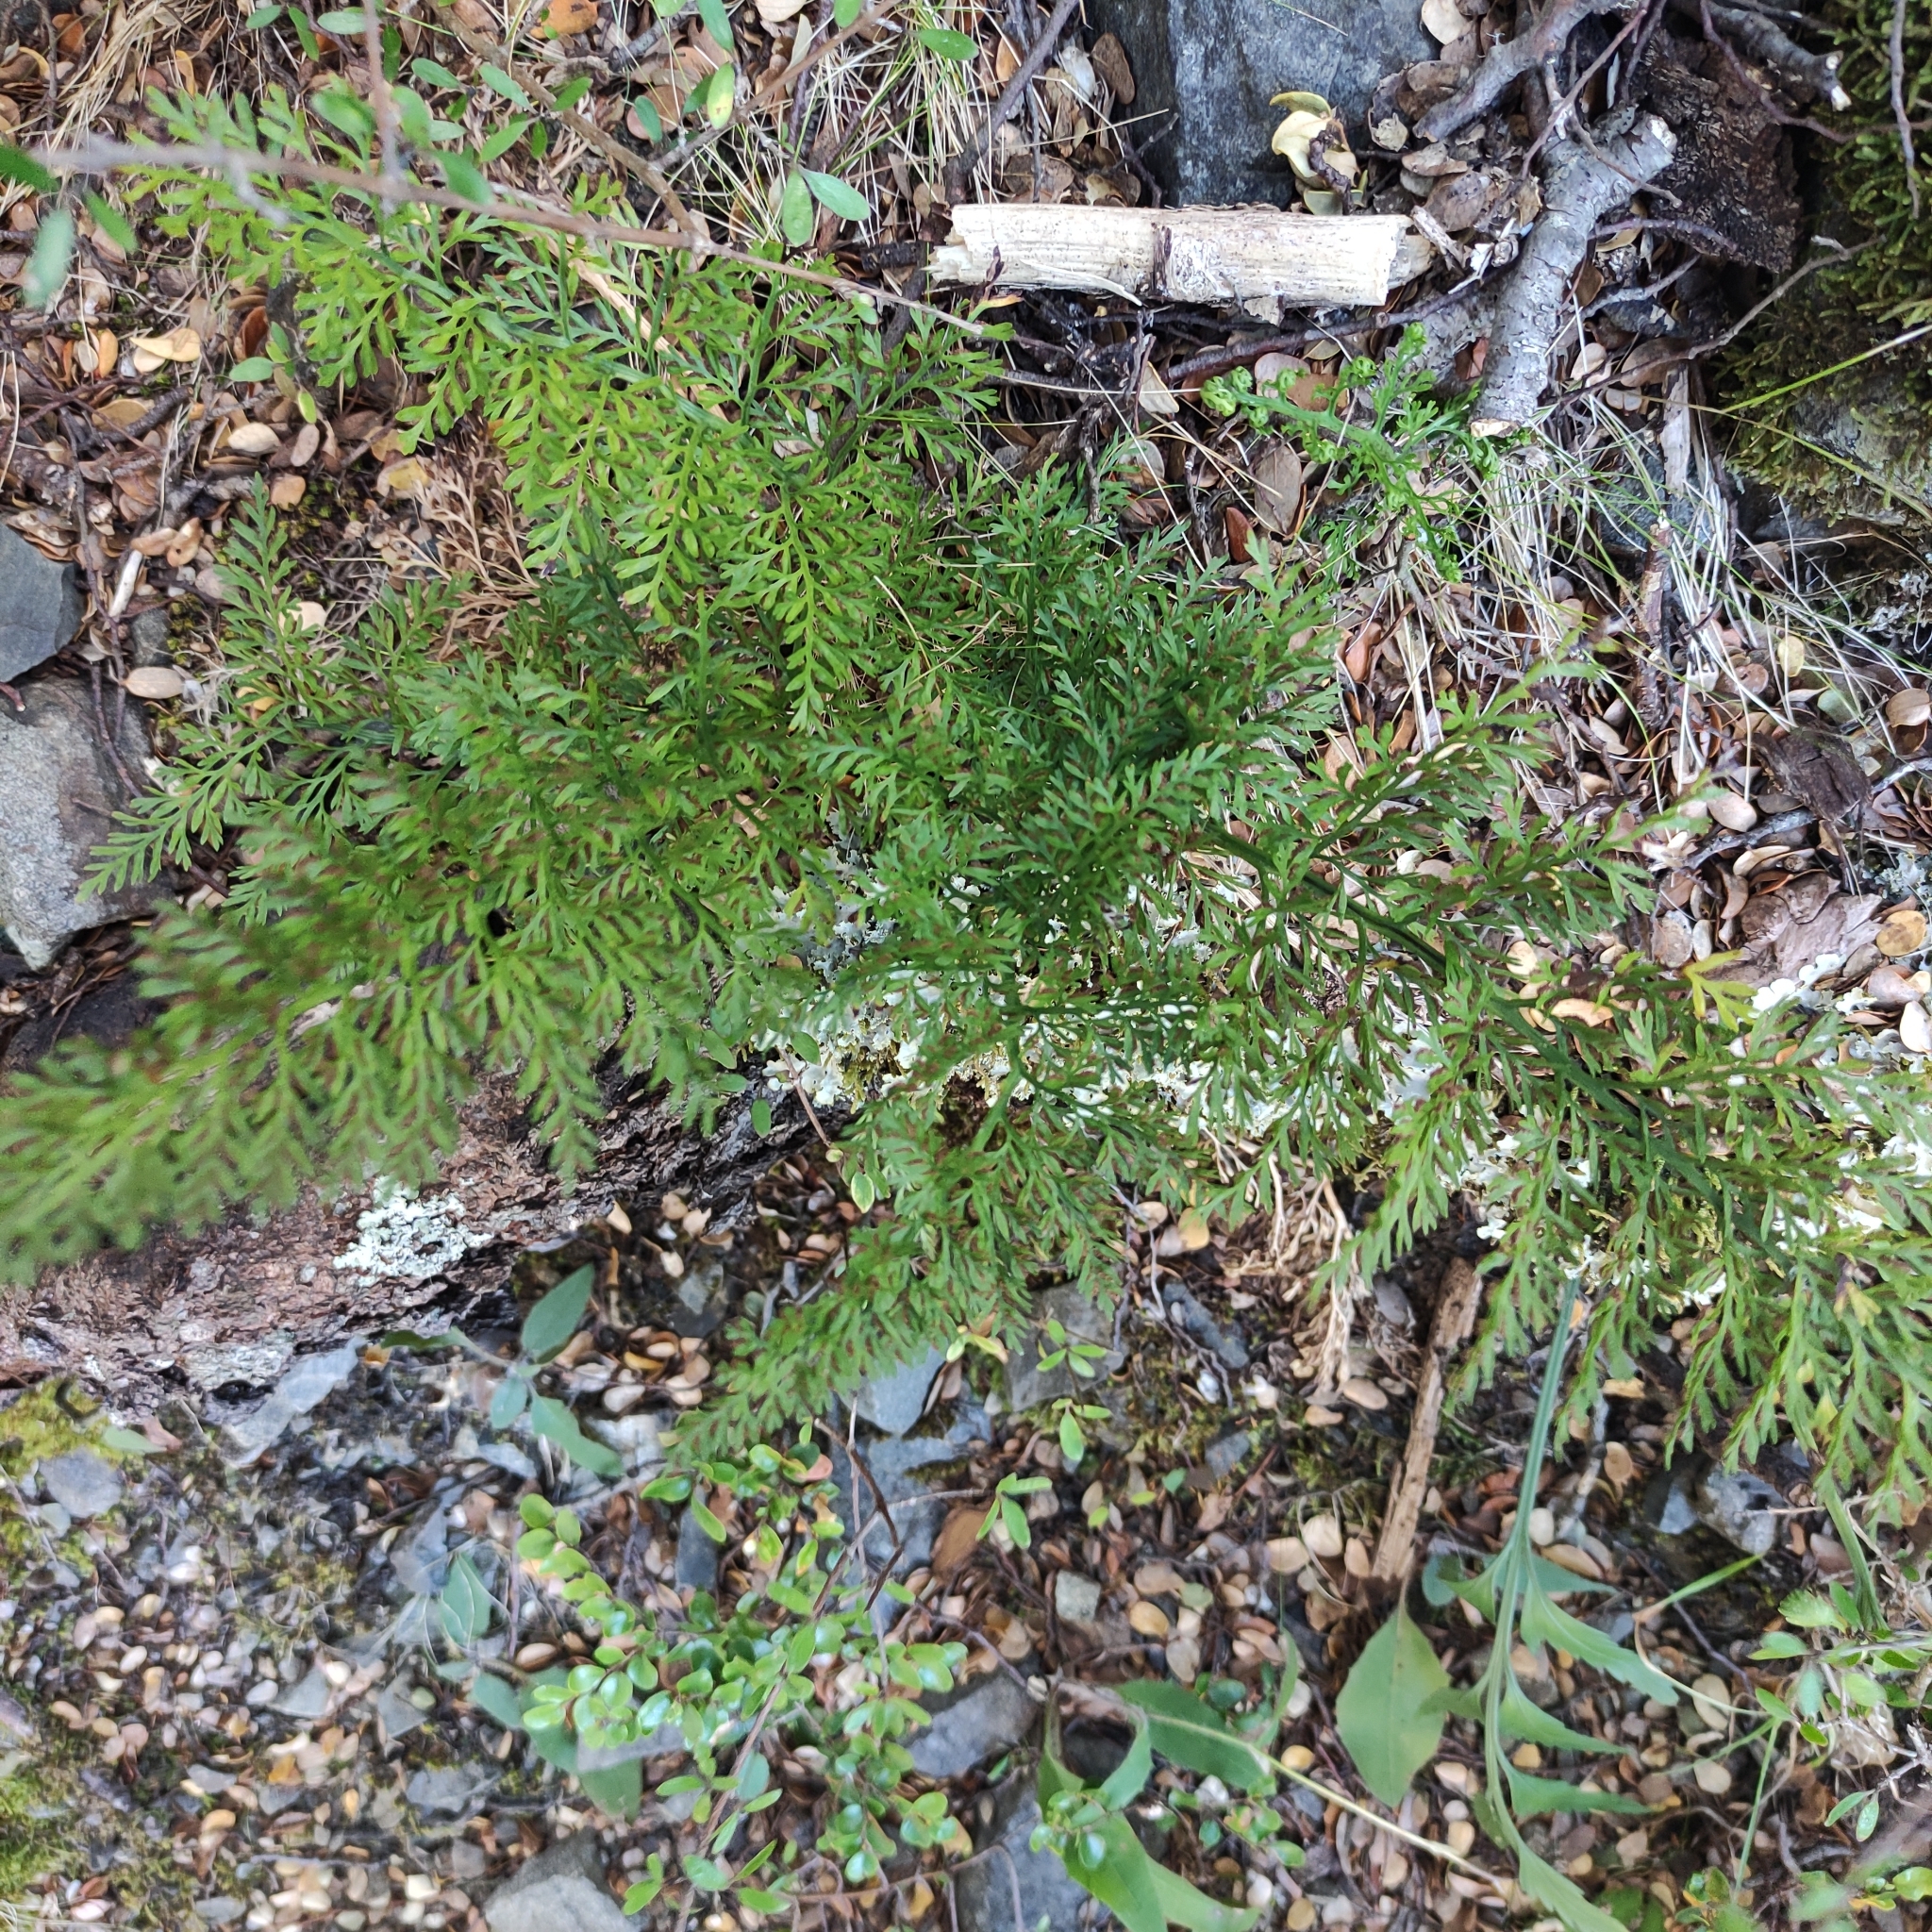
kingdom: Plantae
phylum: Tracheophyta
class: Polypodiopsida
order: Polypodiales
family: Aspleniaceae
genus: Asplenium
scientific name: Asplenium richardii
